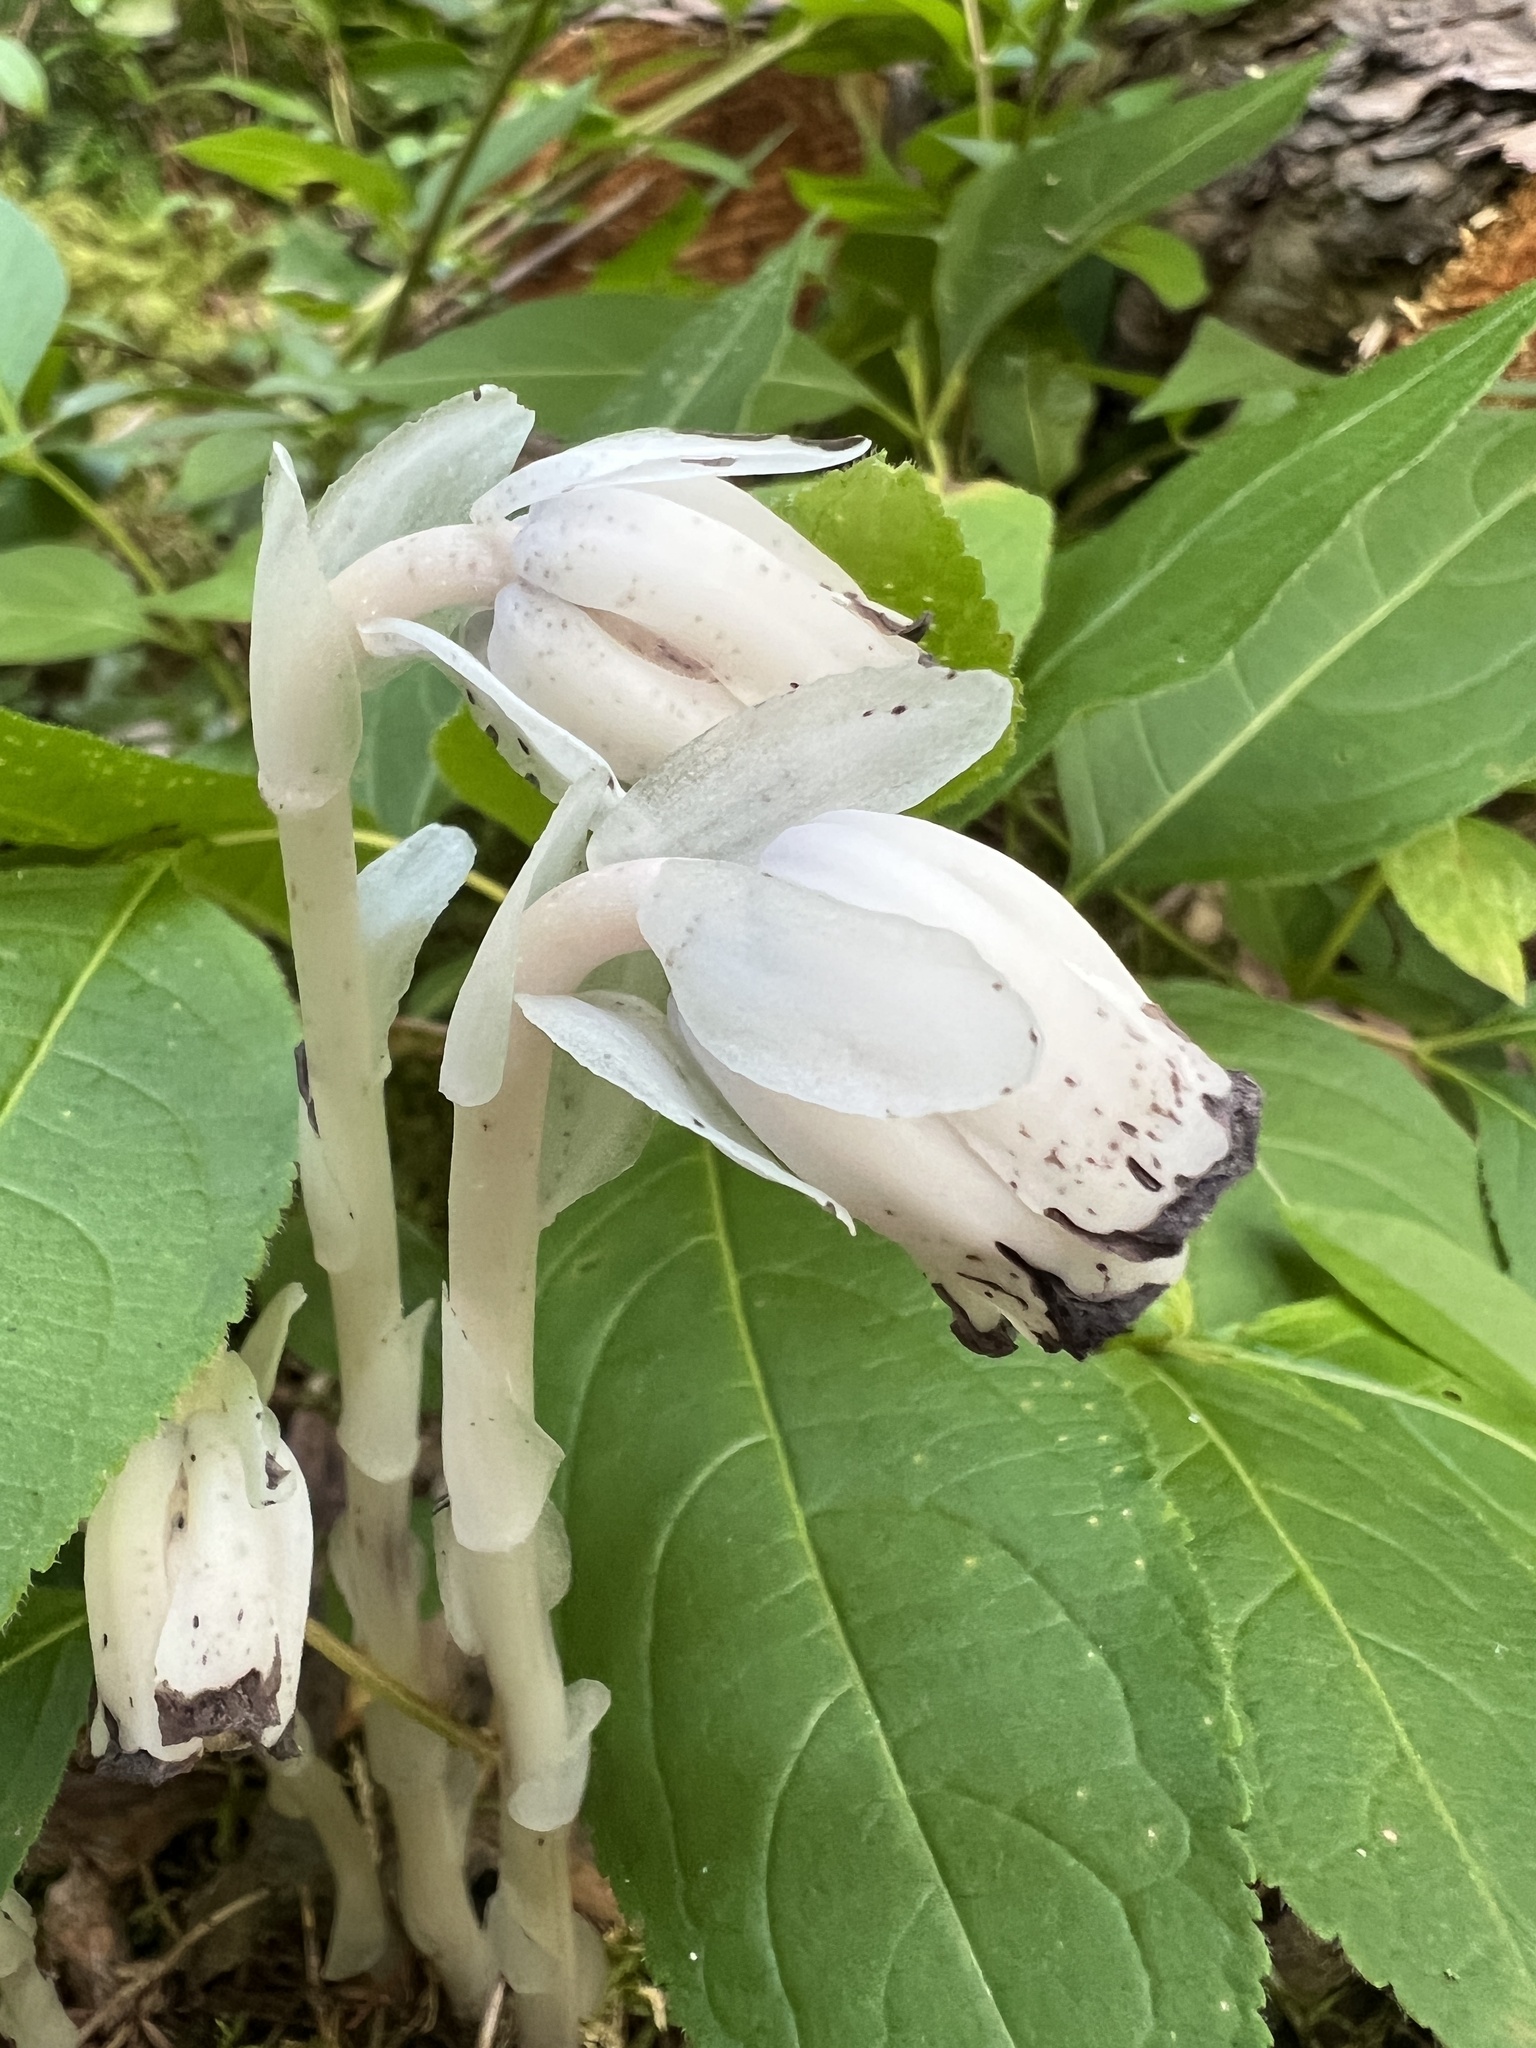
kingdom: Plantae
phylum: Tracheophyta
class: Magnoliopsida
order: Ericales
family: Ericaceae
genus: Monotropa
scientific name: Monotropa uniflora
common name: Convulsion root
